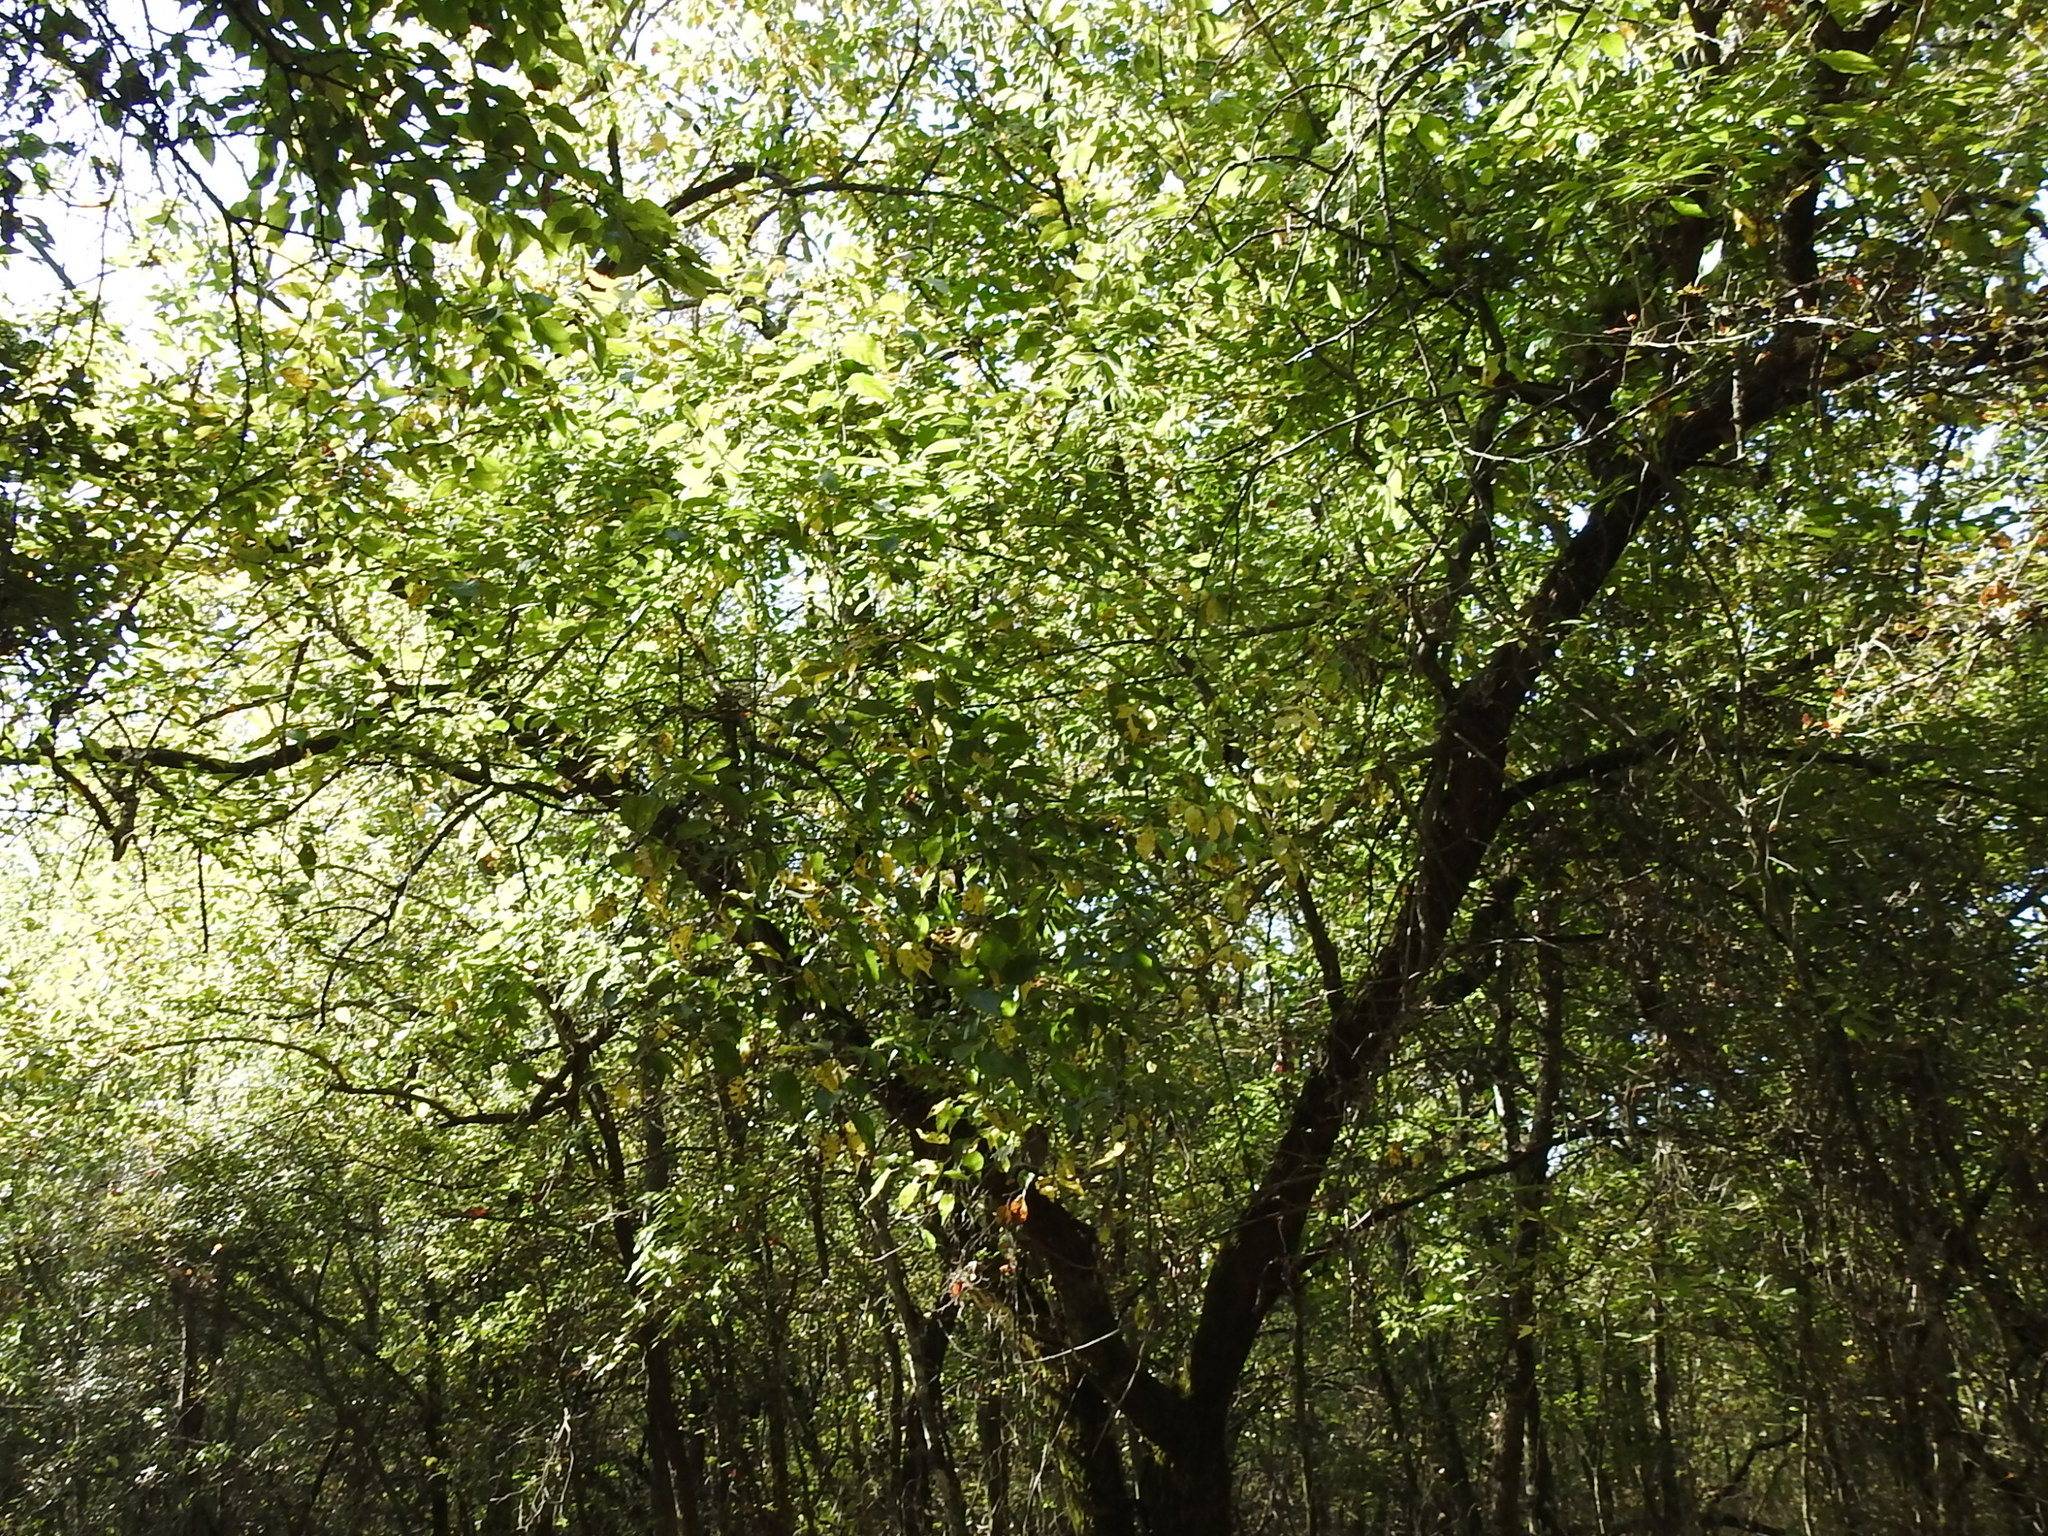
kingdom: Plantae
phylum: Tracheophyta
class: Magnoliopsida
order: Rosales
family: Moraceae
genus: Maclura
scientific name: Maclura pomifera
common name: Osage-orange
